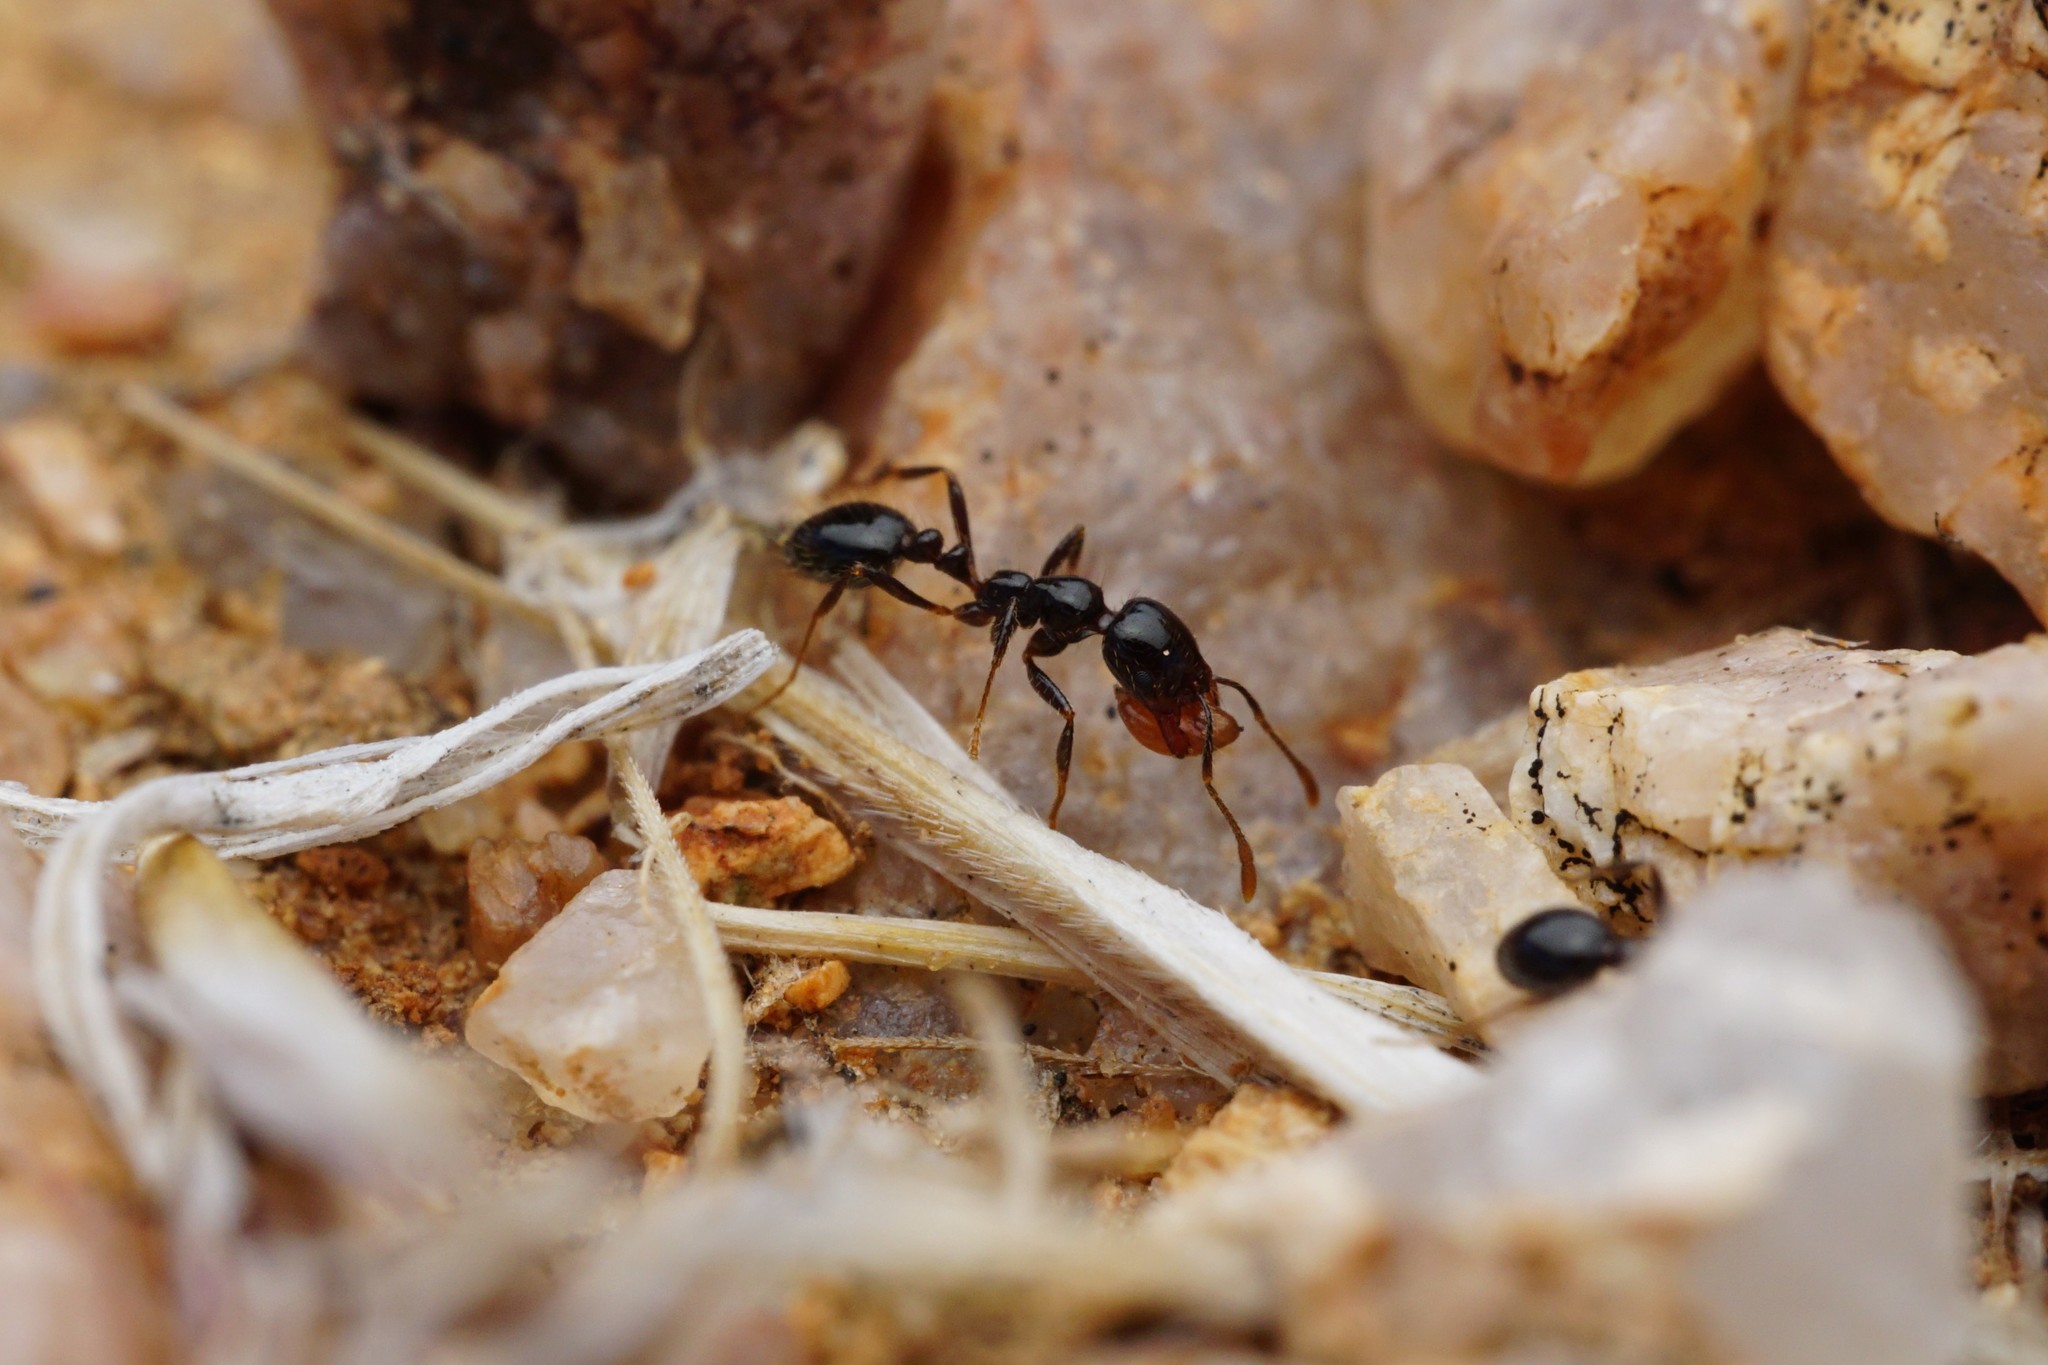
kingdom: Animalia
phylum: Arthropoda
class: Insecta
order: Hymenoptera
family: Formicidae
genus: Solenopsis
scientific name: Solenopsis xyloni
